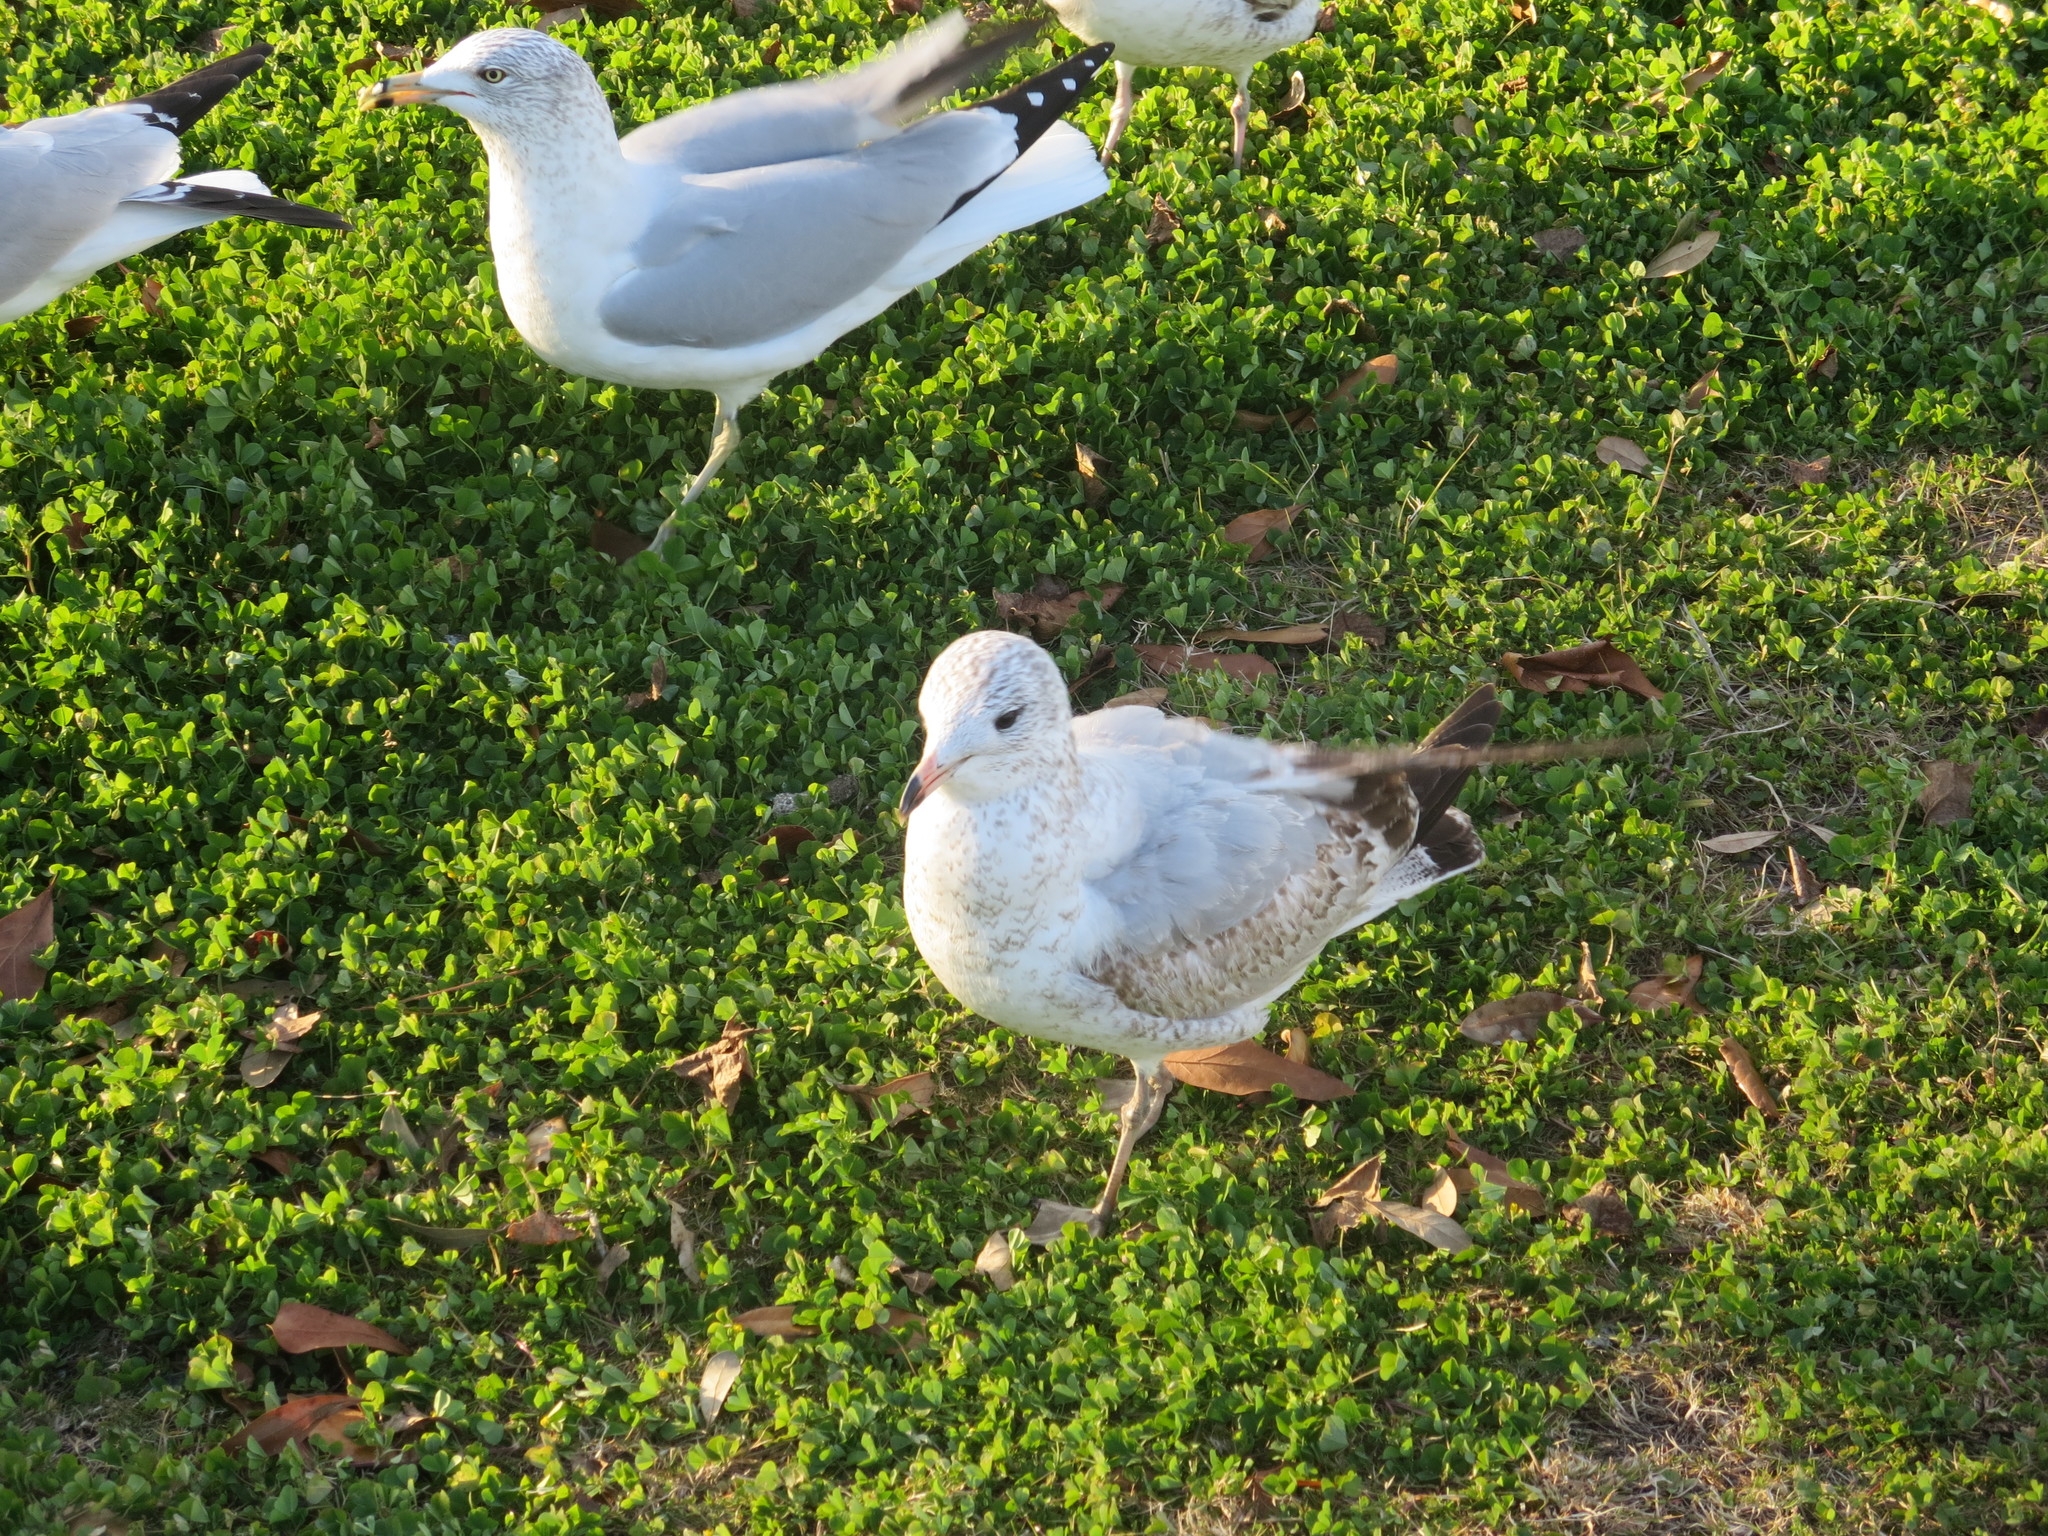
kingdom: Animalia
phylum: Chordata
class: Aves
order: Charadriiformes
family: Laridae
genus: Larus
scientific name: Larus delawarensis
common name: Ring-billed gull
